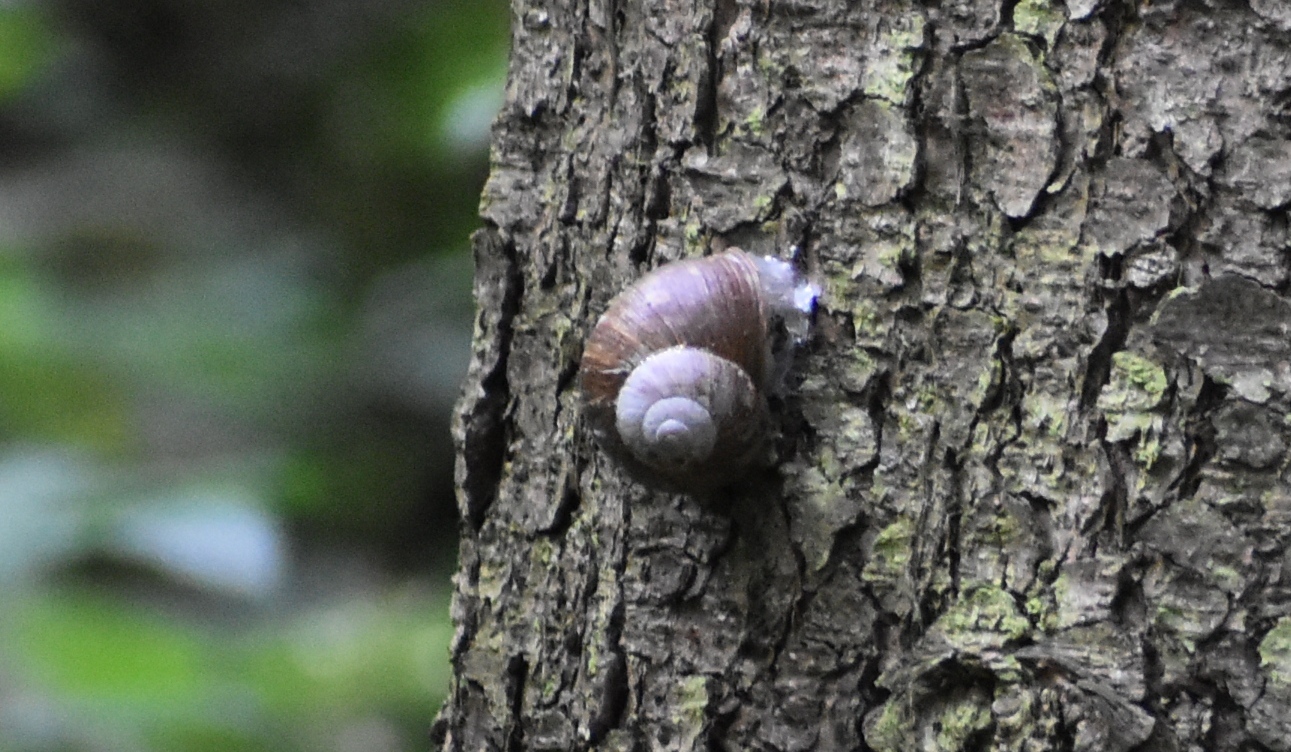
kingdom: Animalia
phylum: Mollusca
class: Gastropoda
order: Stylommatophora
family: Helicidae
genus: Helix
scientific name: Helix pomatia
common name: Roman snail
